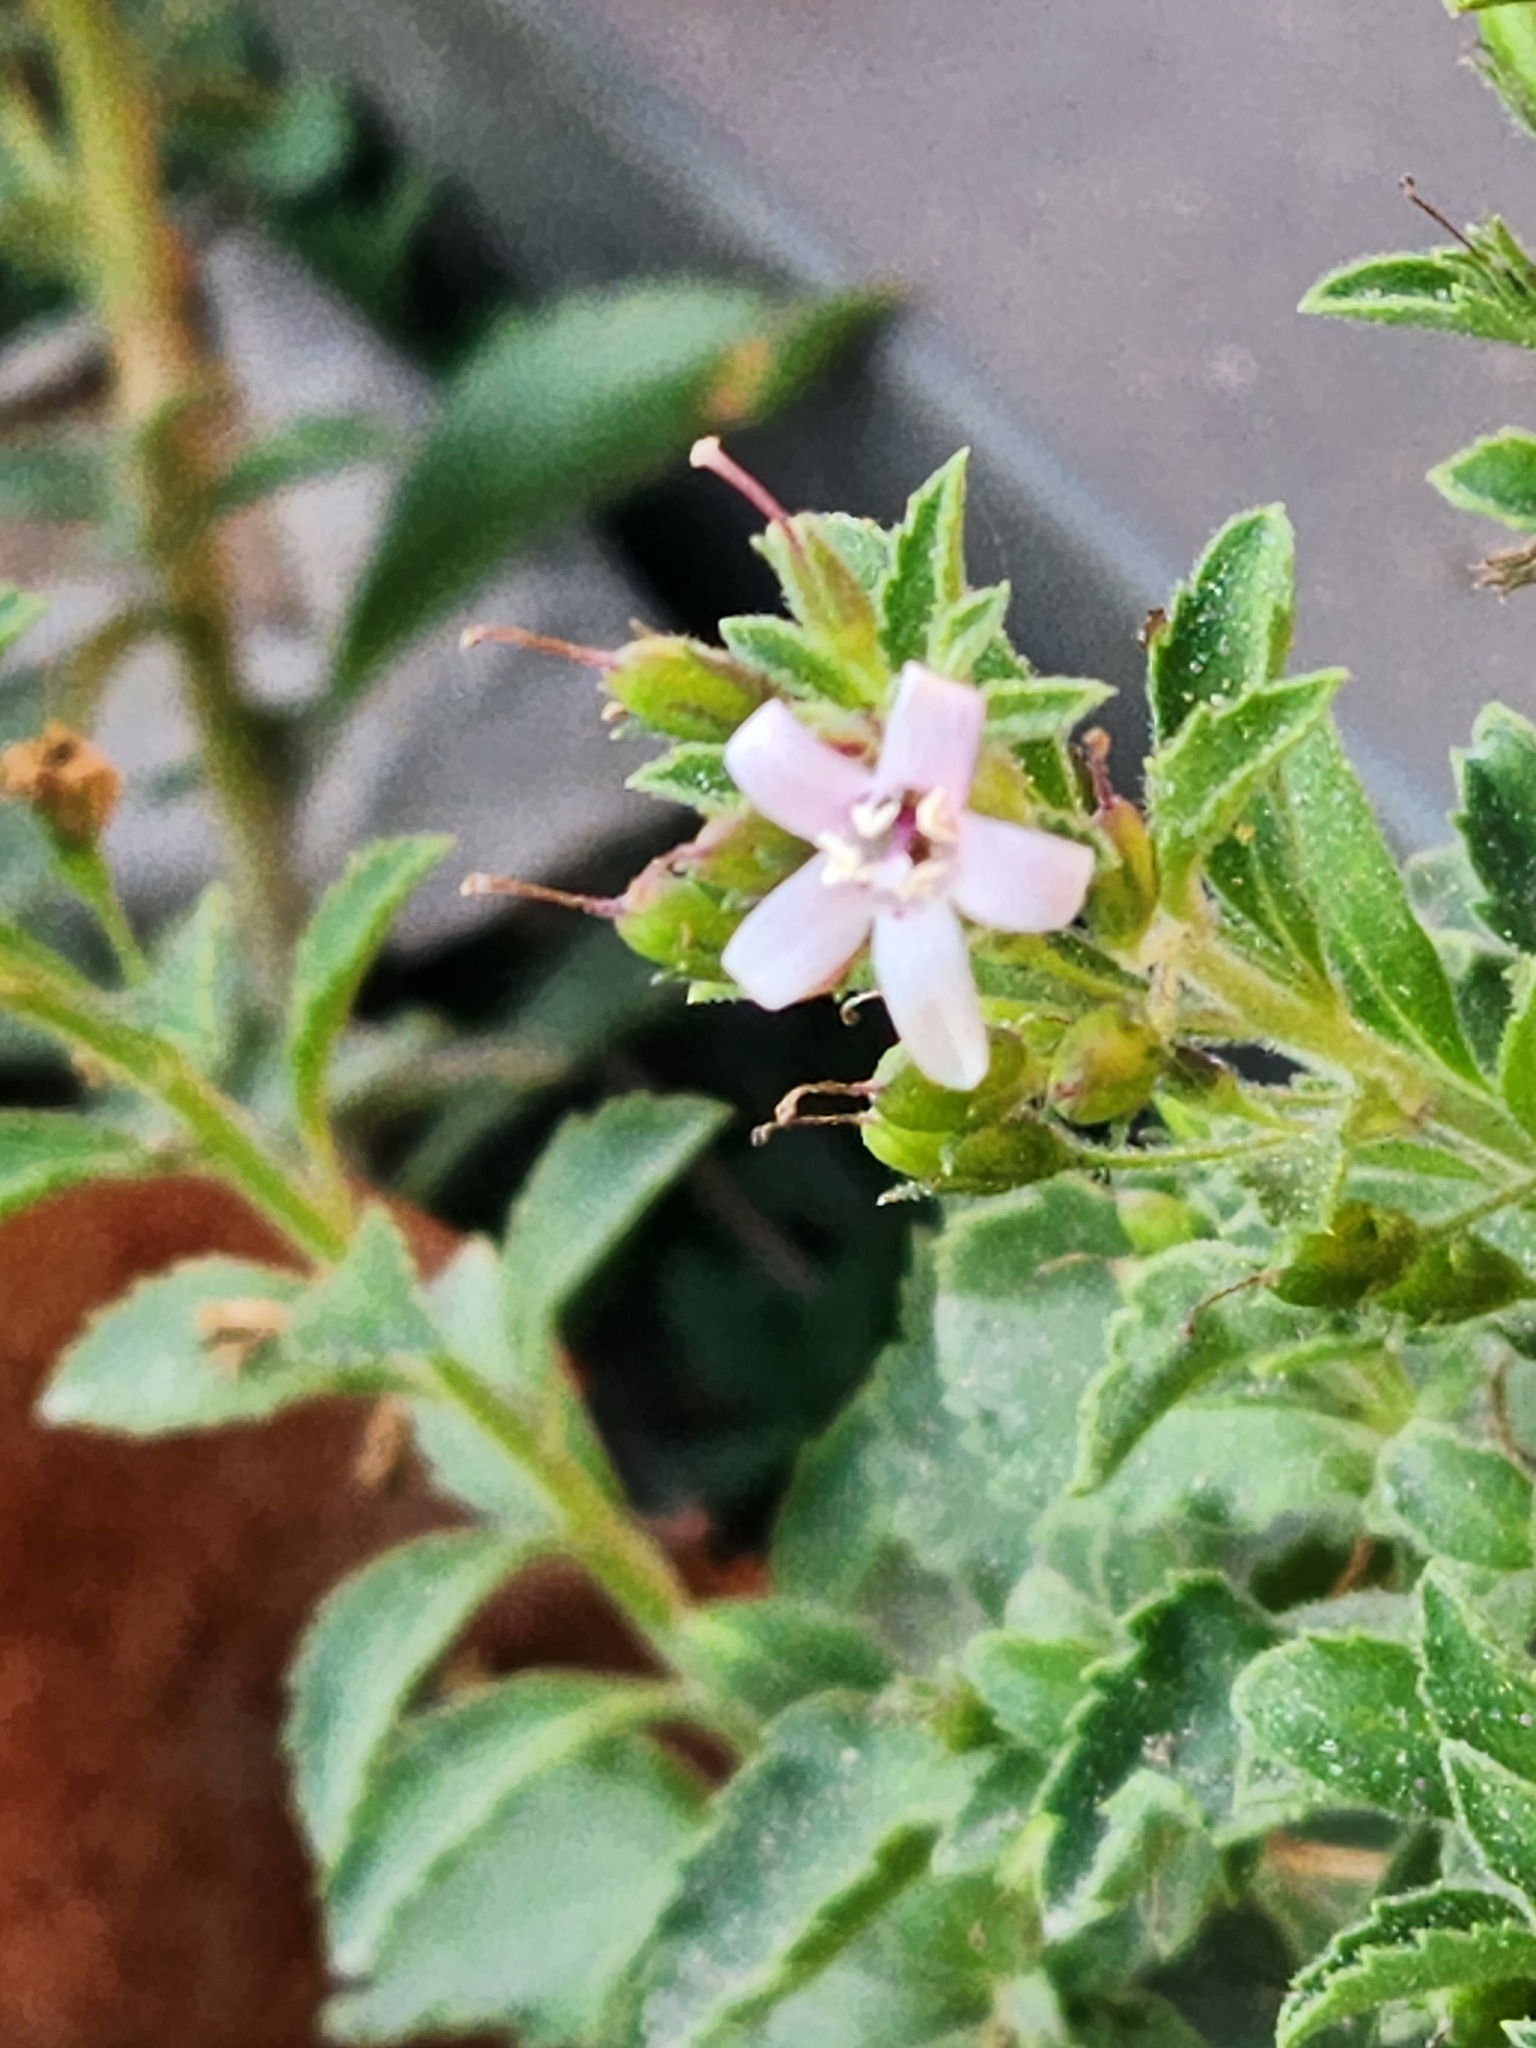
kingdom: Plantae
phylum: Tracheophyta
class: Magnoliopsida
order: Lamiales
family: Scrophulariaceae
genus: Capraria
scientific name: Capraria biflora
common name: Goatweed
